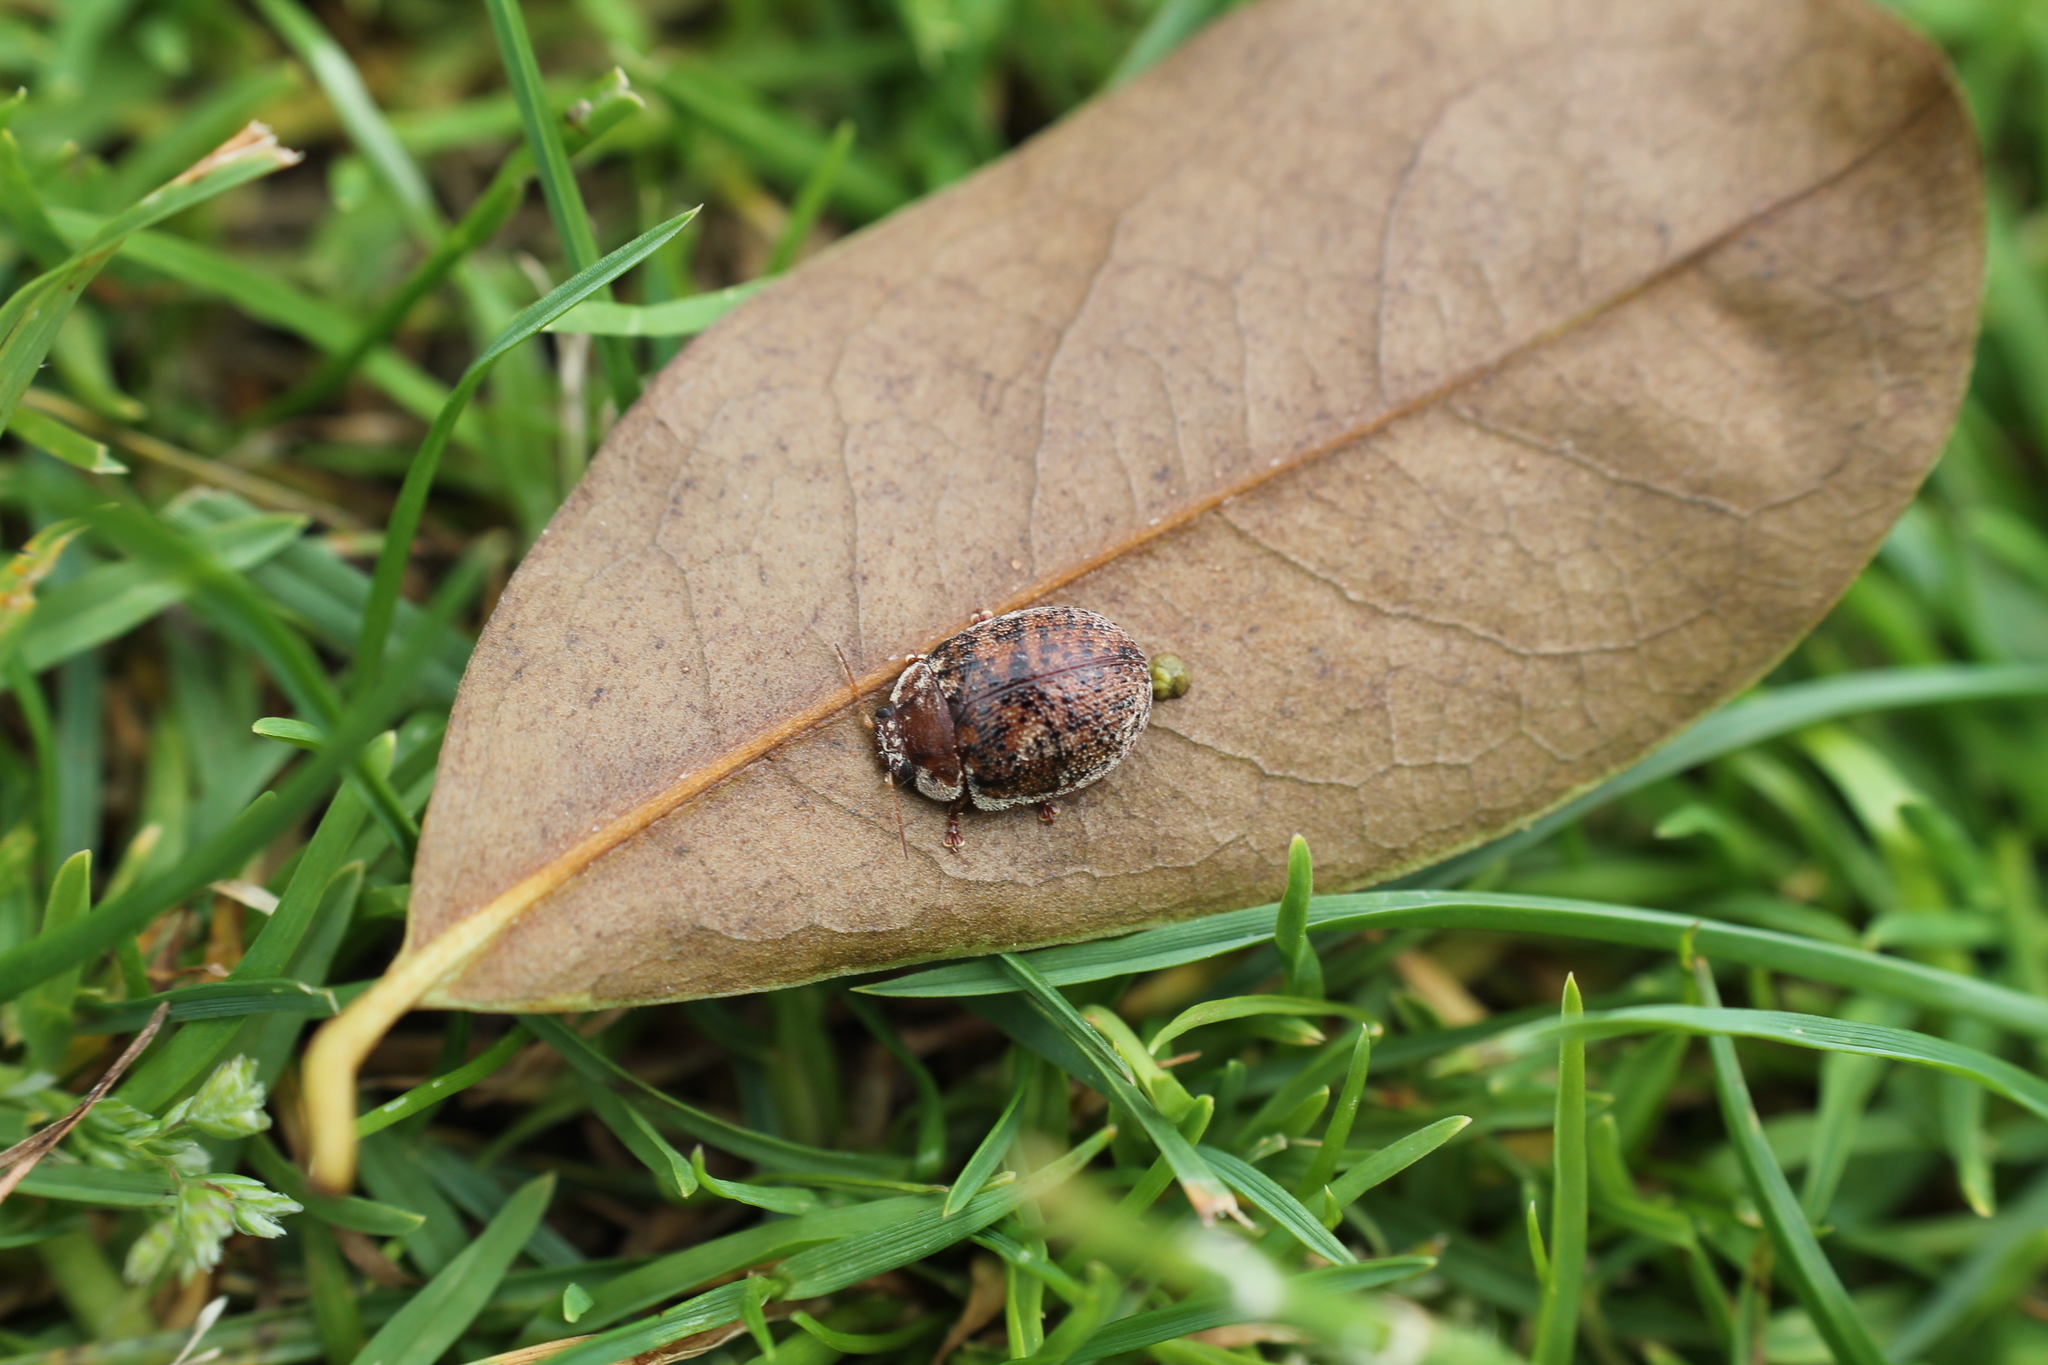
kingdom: Animalia
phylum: Arthropoda
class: Insecta
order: Coleoptera
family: Chrysomelidae
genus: Trachymela
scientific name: Trachymela sloanei
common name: Australian tortoise beetle
